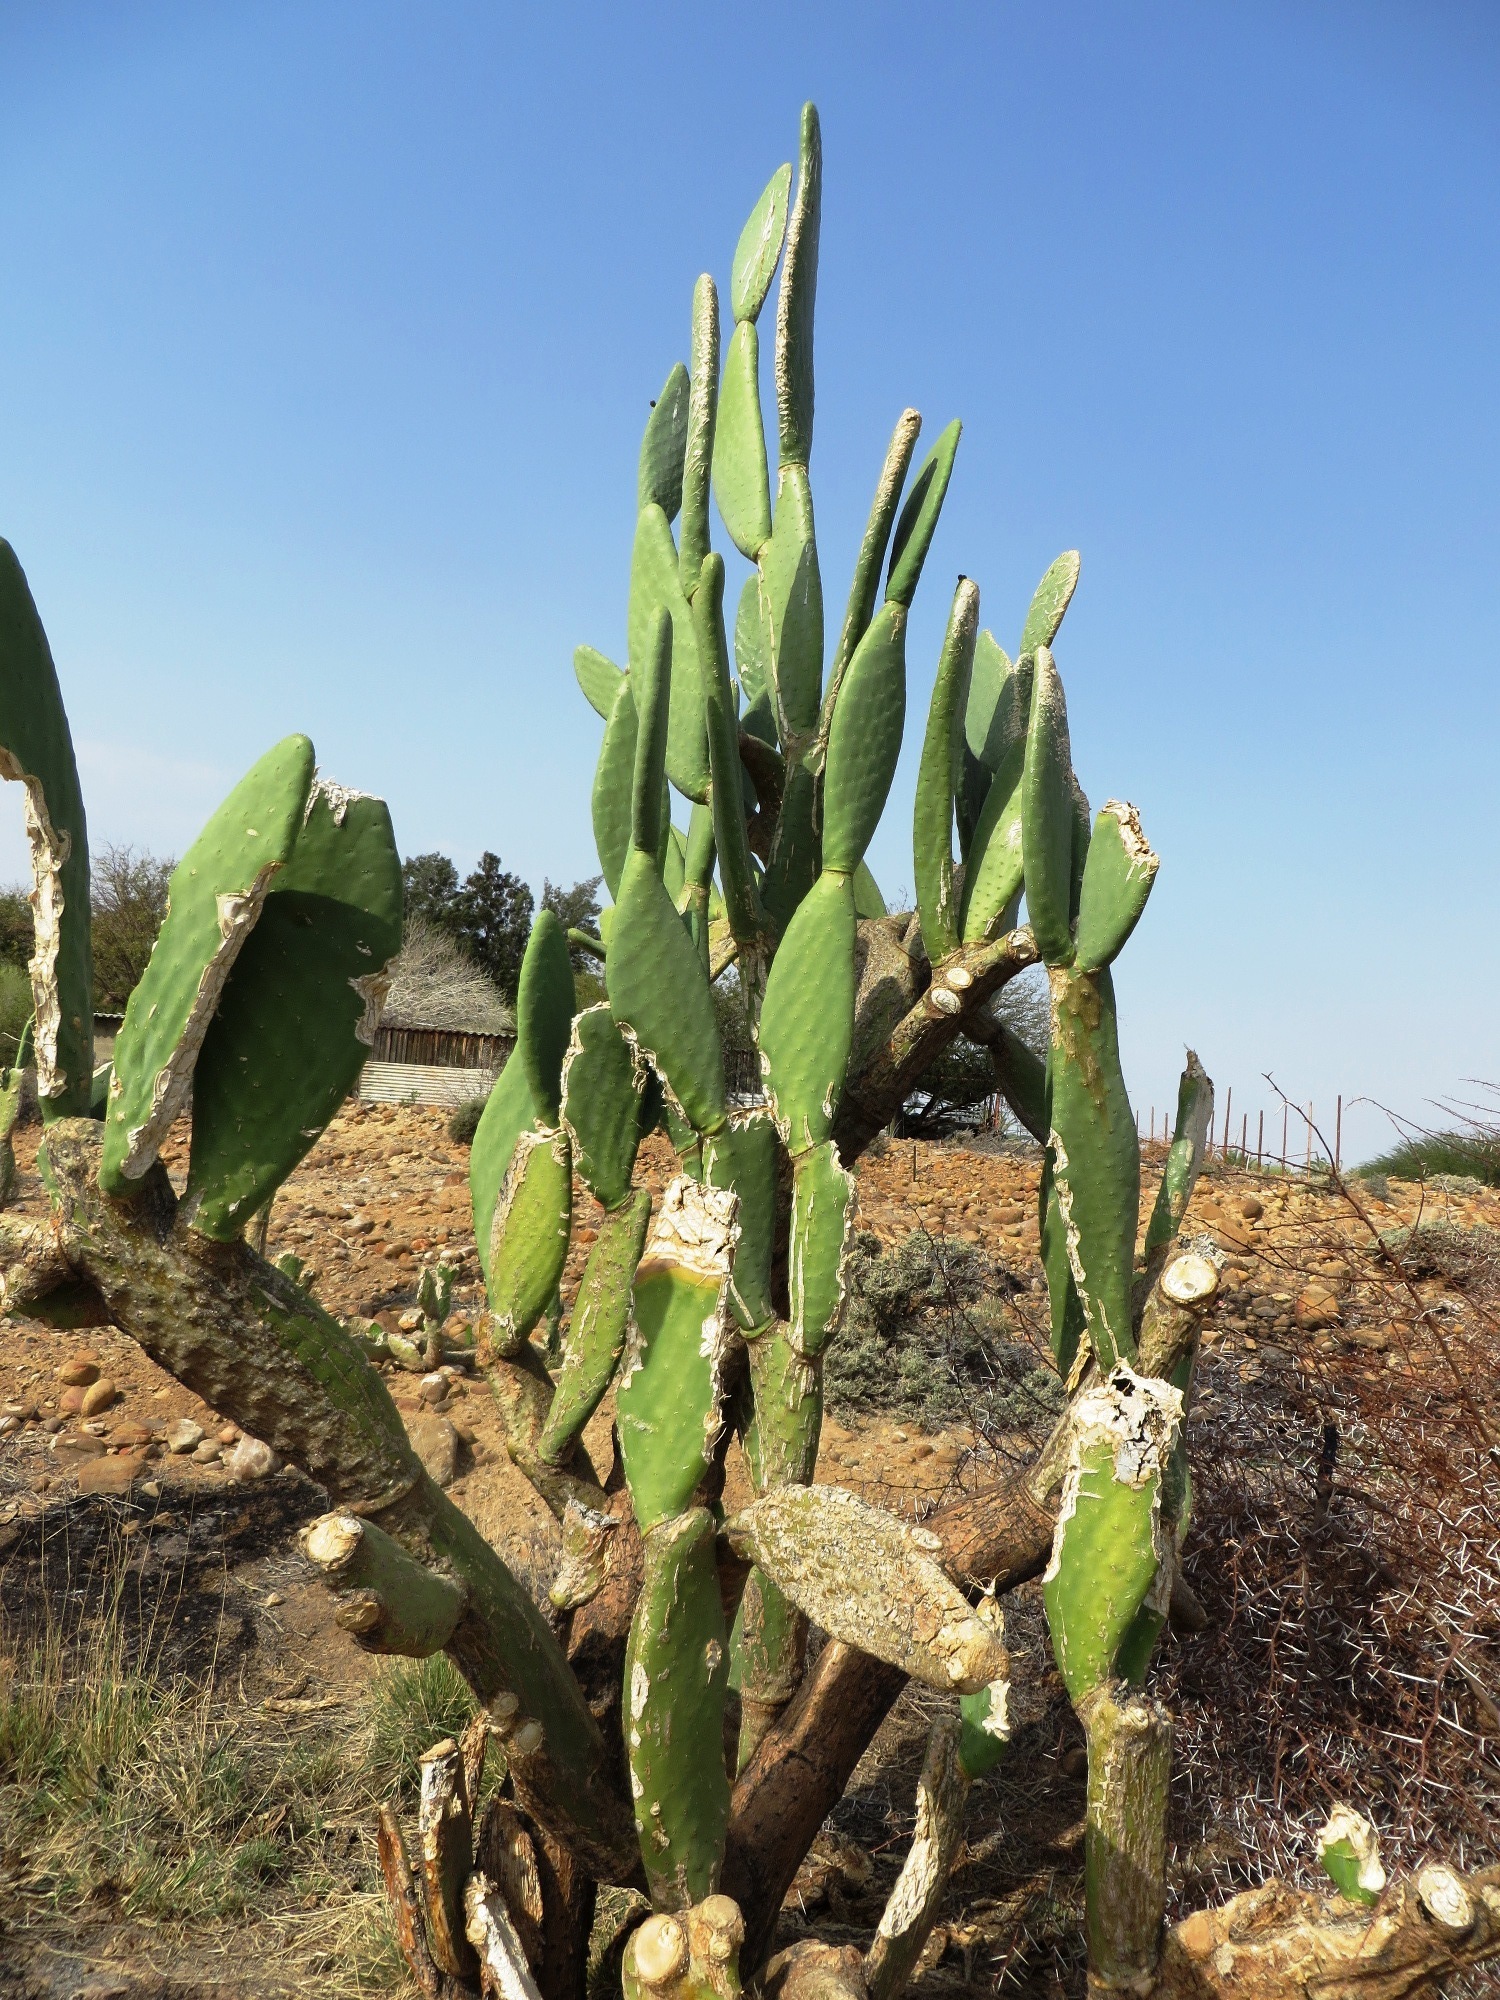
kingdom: Plantae
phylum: Tracheophyta
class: Magnoliopsida
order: Caryophyllales
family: Cactaceae
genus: Opuntia
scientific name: Opuntia ficus-indica
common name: Barbary fig
